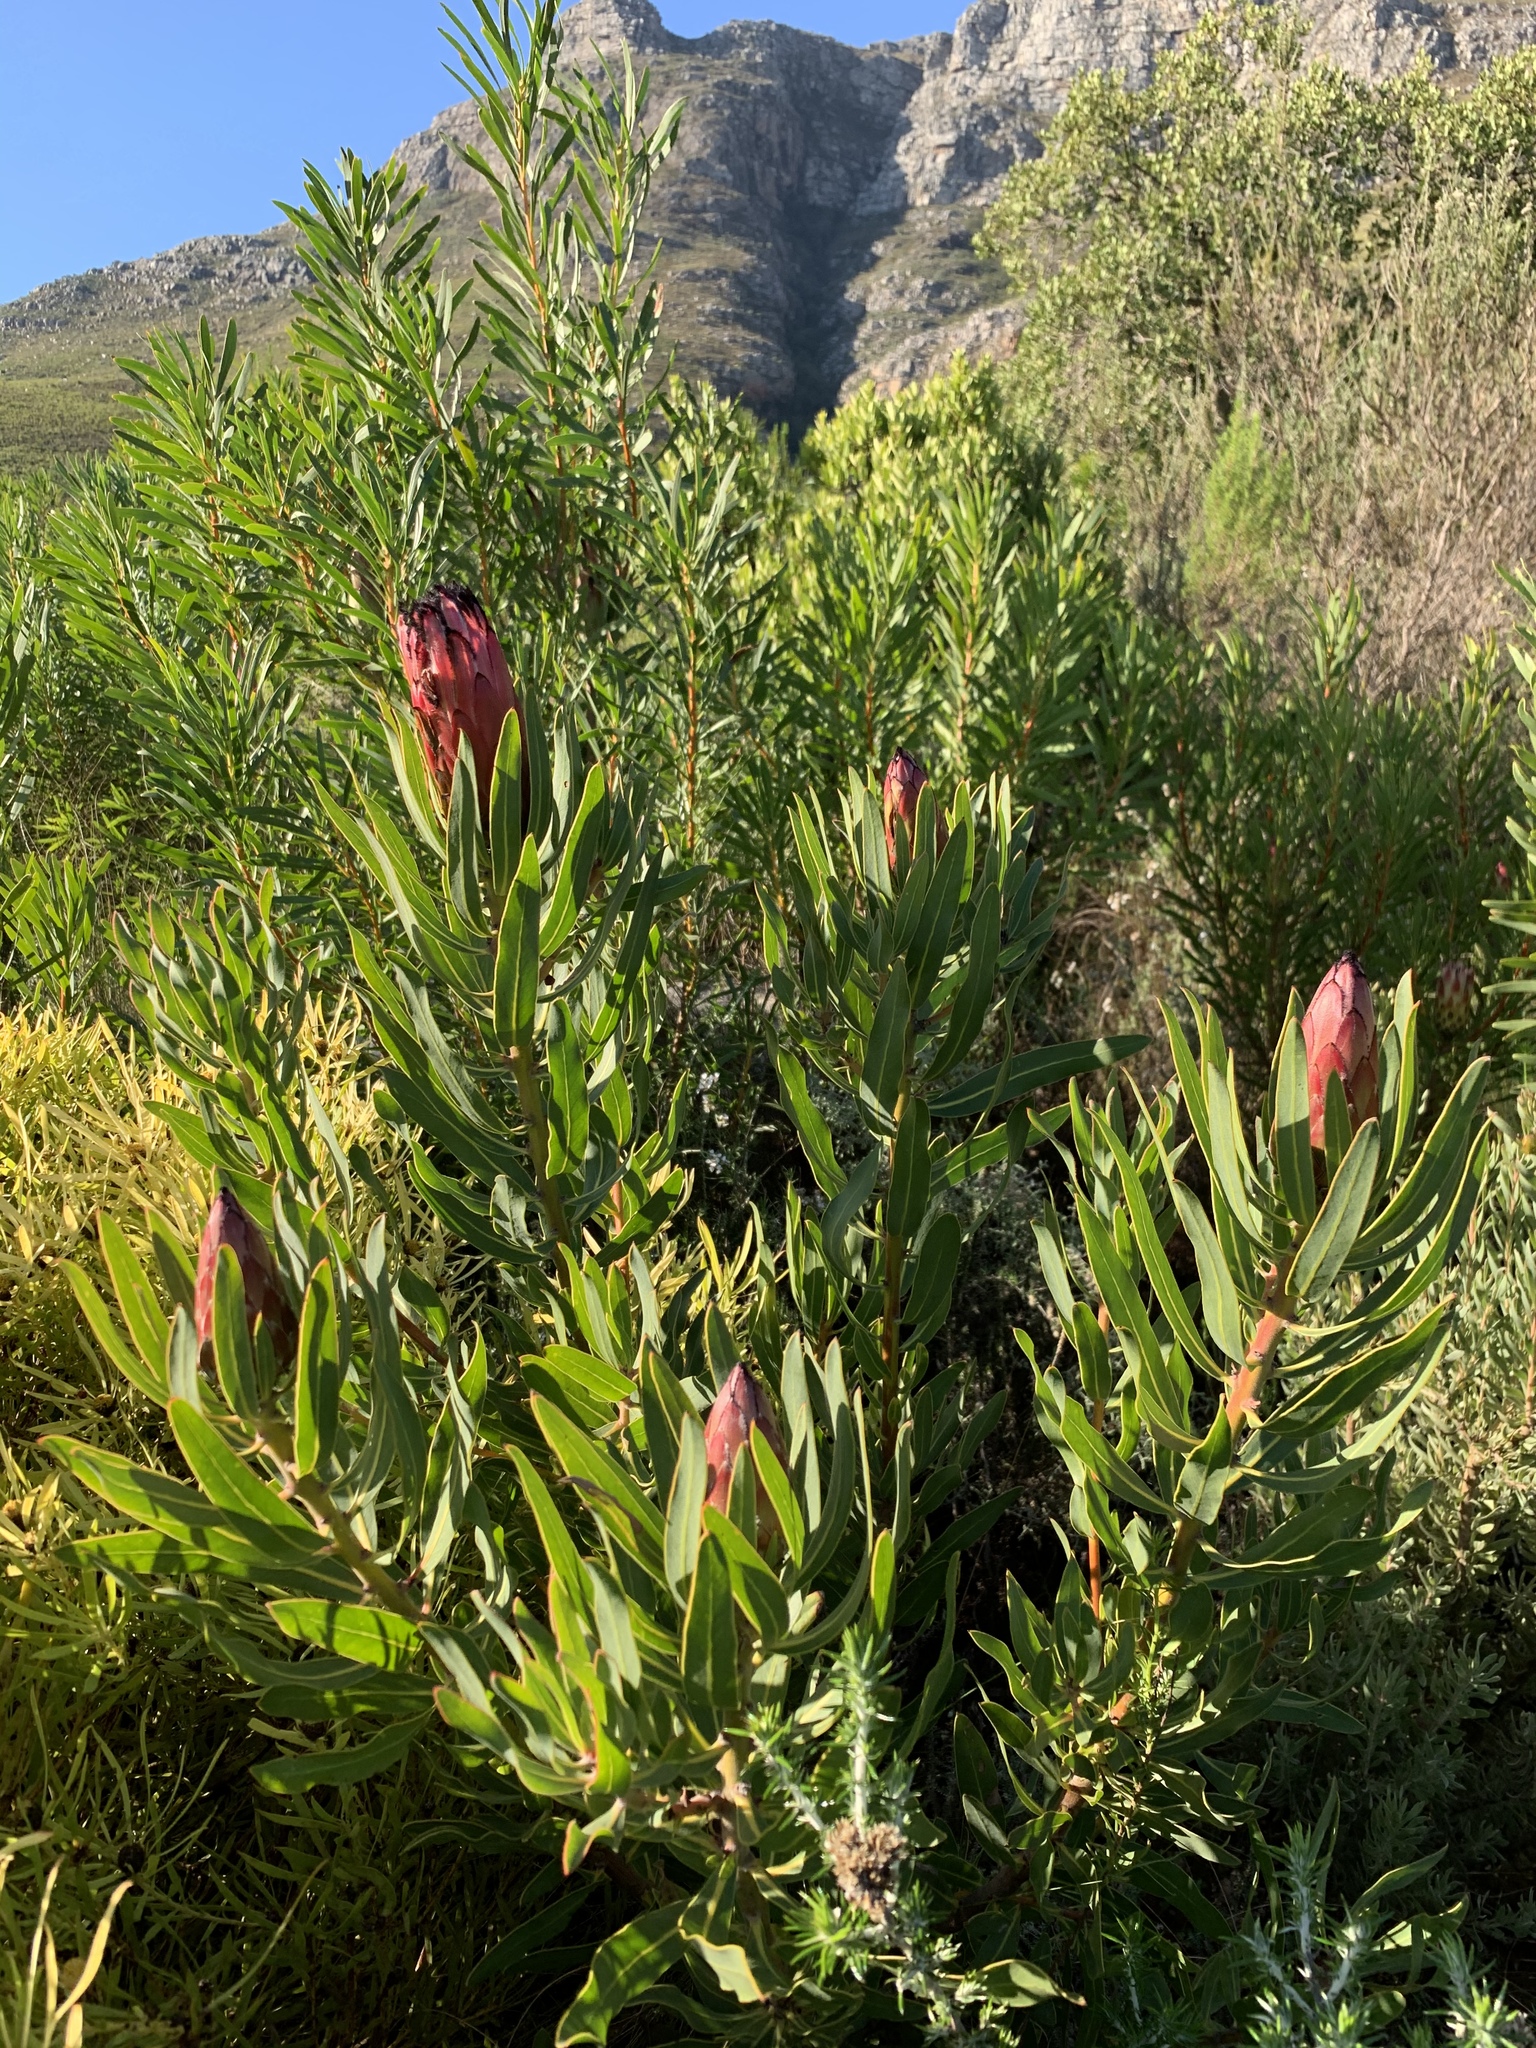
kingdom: Plantae
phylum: Tracheophyta
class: Magnoliopsida
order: Proteales
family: Proteaceae
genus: Protea
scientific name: Protea laurifolia
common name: Grey-leaf sugarbsh
